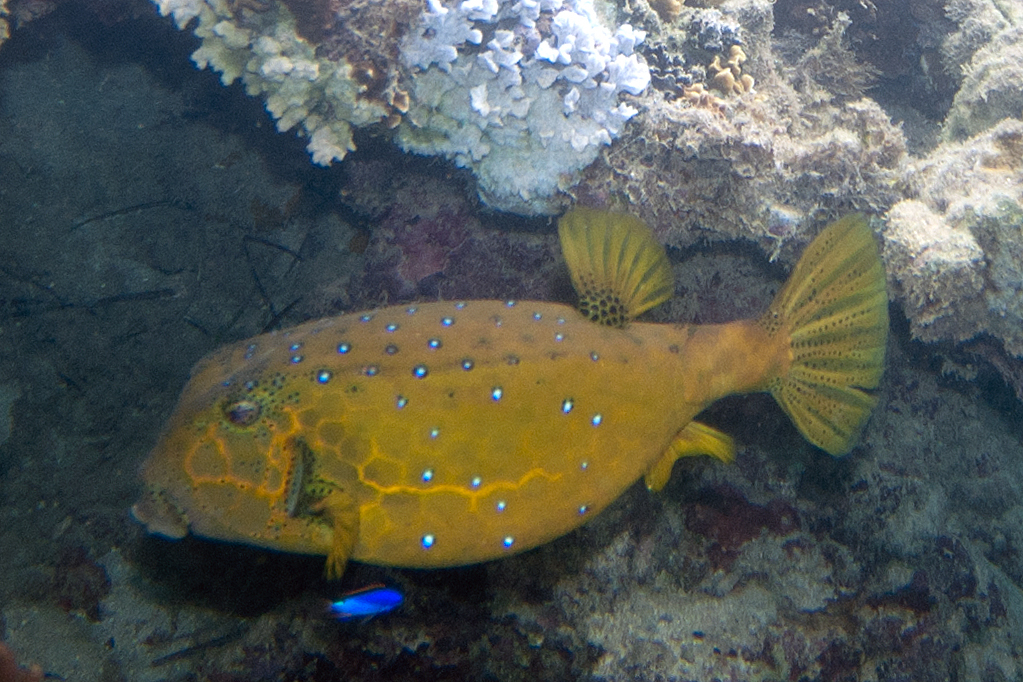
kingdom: Animalia
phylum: Chordata
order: Tetraodontiformes
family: Ostraciidae
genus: Ostracion
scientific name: Ostracion cubicus
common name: Cube trunkfish
